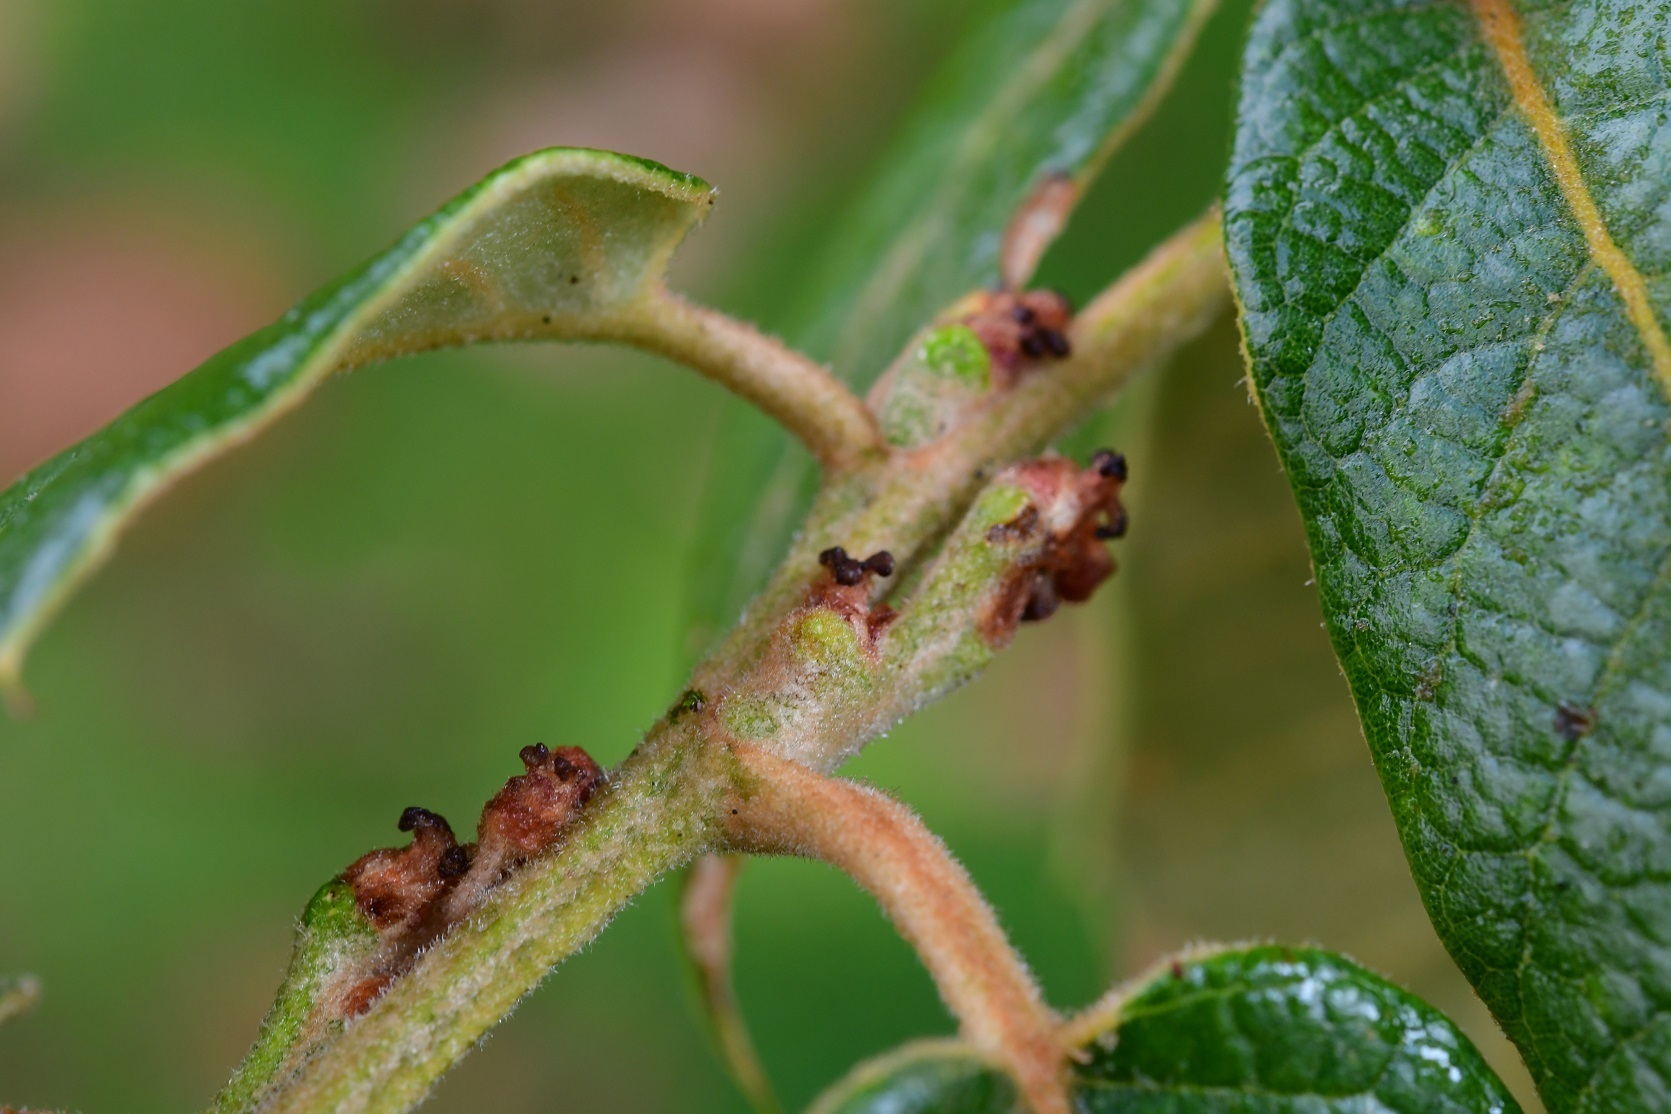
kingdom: Plantae
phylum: Tracheophyta
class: Magnoliopsida
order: Fagales
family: Fagaceae
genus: Quercus
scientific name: Quercus crassifolia
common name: Leather leaf mexican oak
